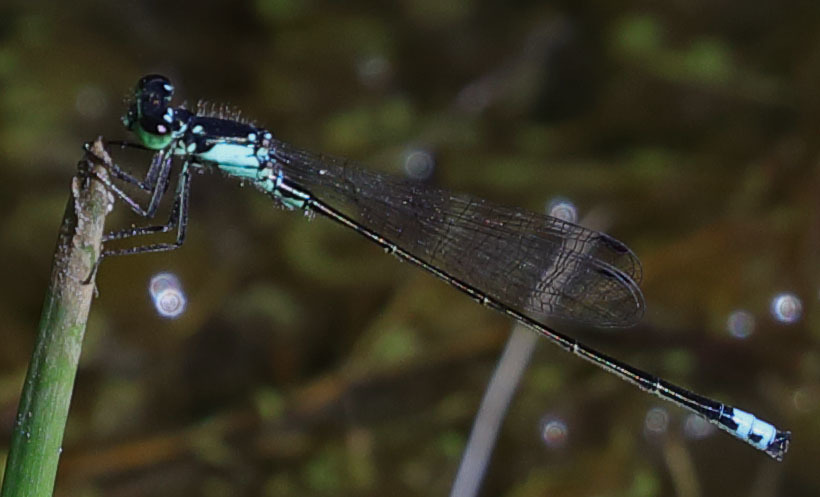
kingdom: Animalia
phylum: Arthropoda
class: Insecta
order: Odonata
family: Coenagrionidae
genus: Ischnura
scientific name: Ischnura cervula
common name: Pacific forktail
